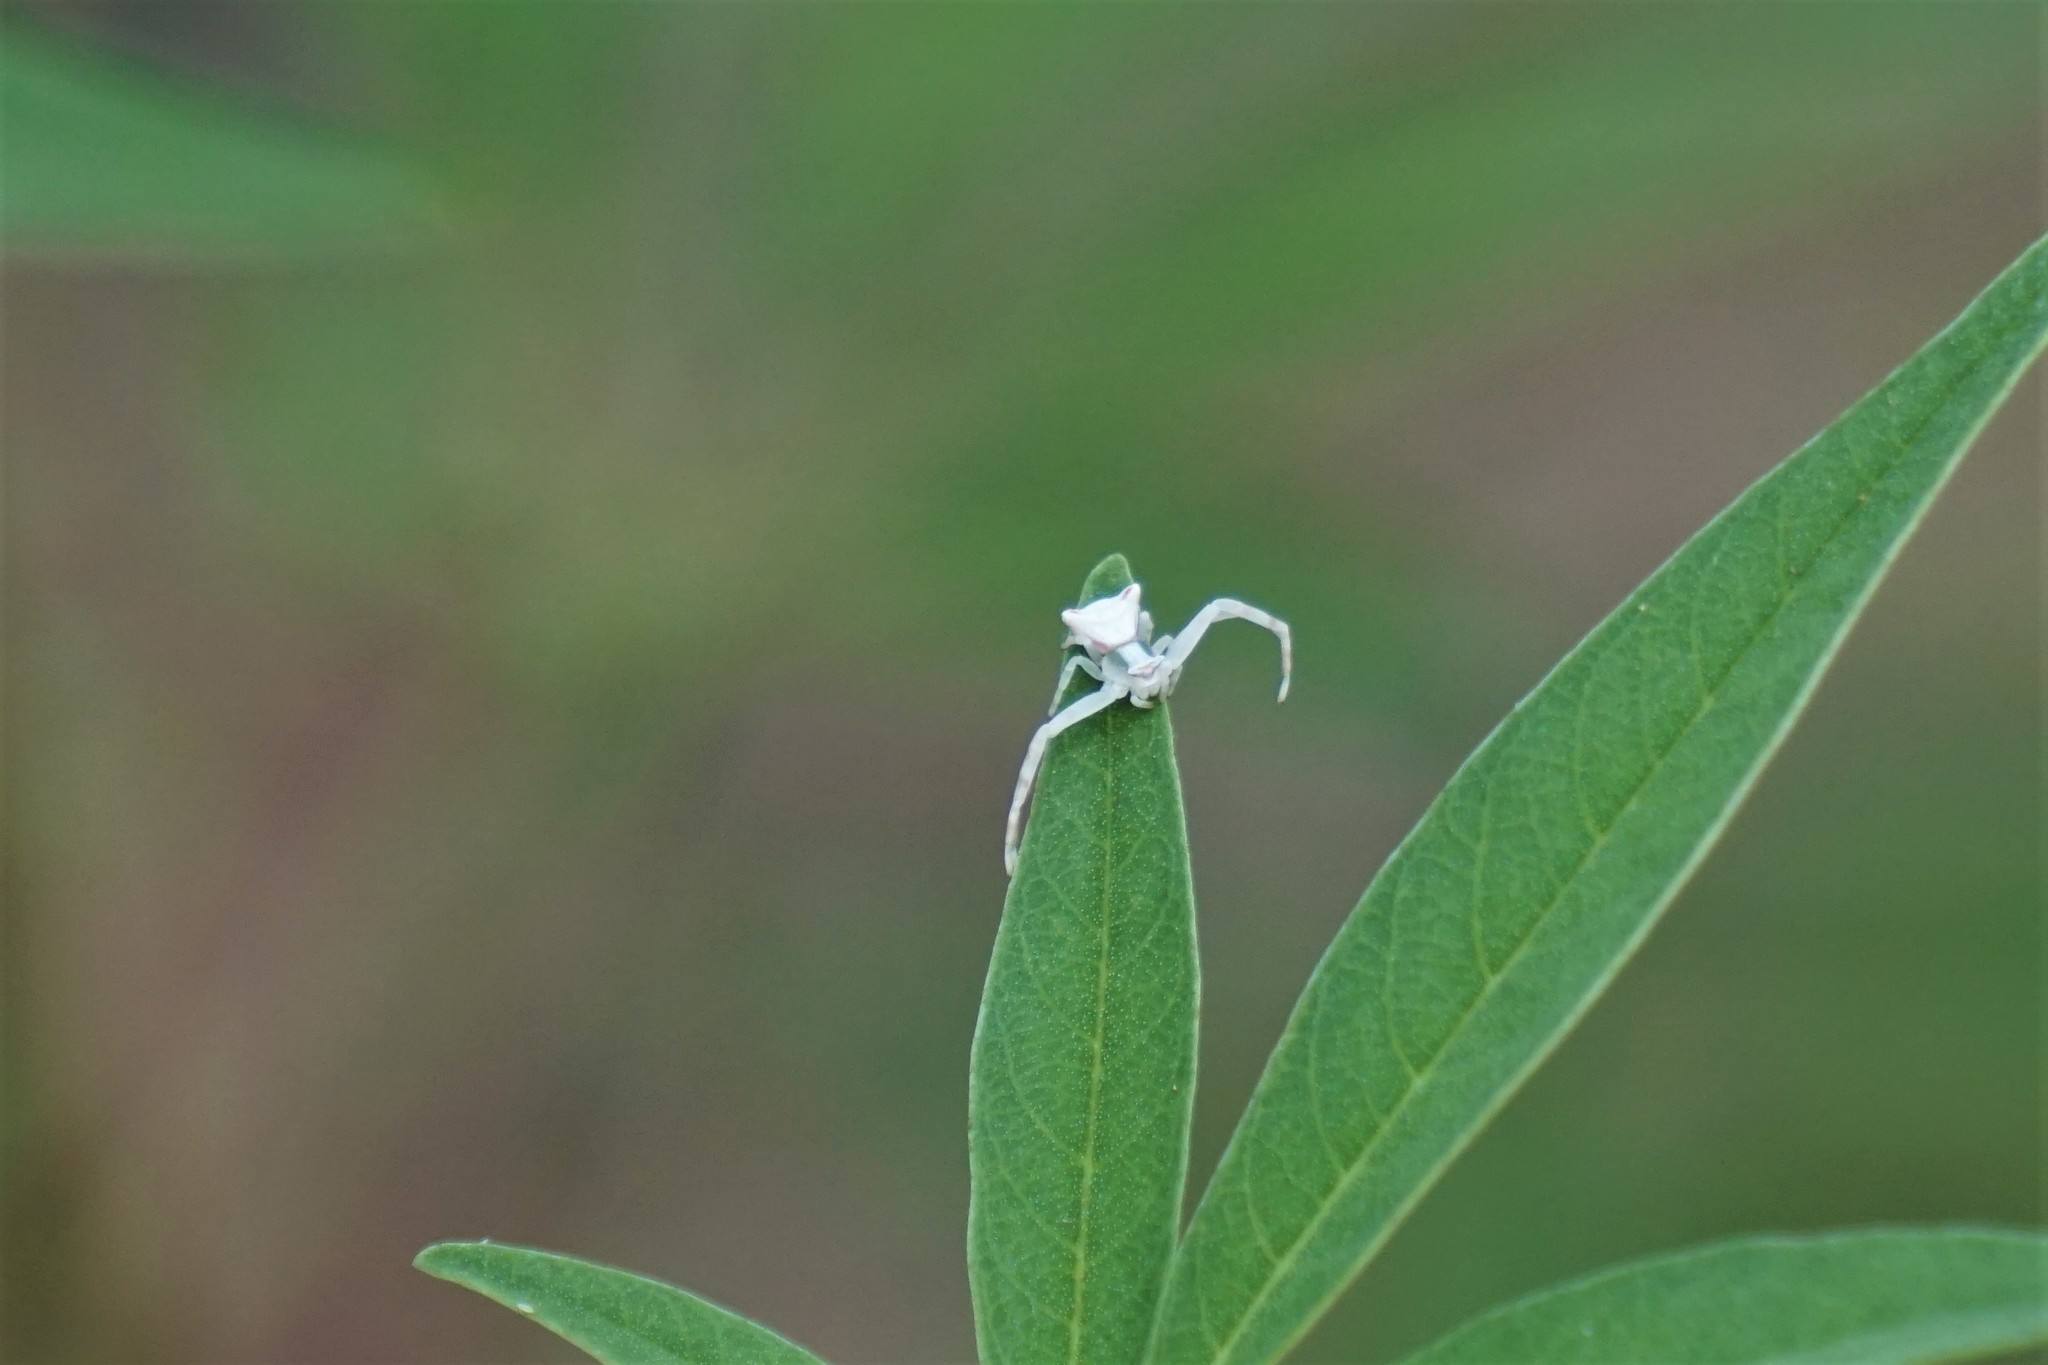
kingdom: Animalia
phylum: Arthropoda
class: Arachnida
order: Araneae
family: Thomisidae
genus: Thomisus
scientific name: Thomisus onustus
